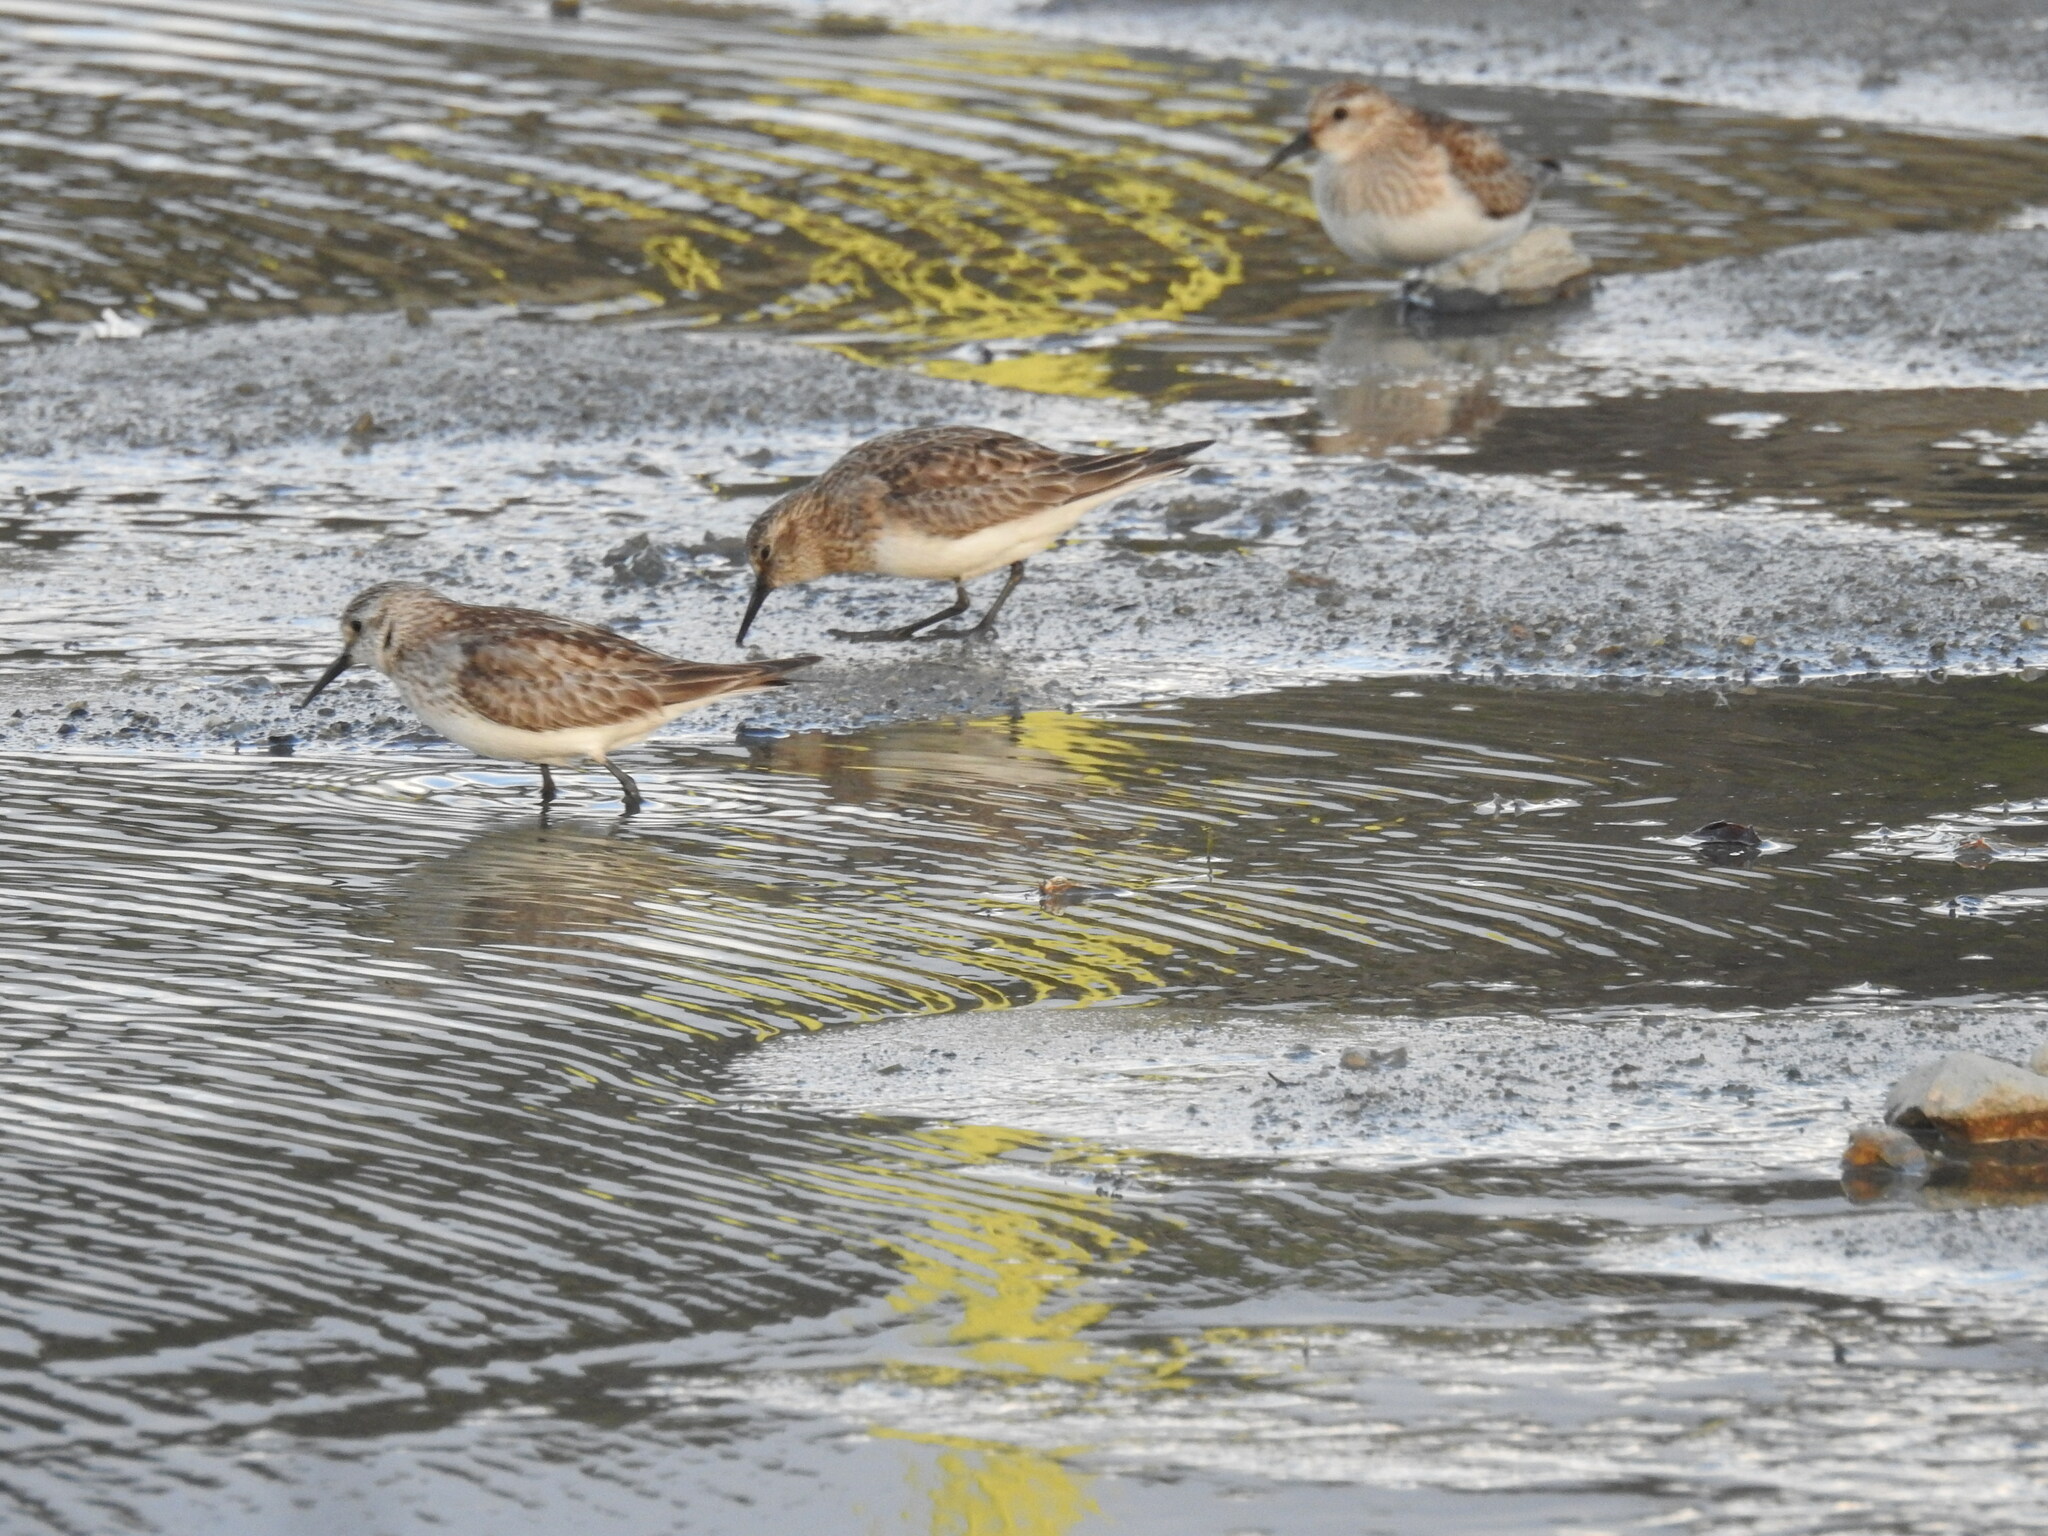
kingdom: Animalia
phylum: Chordata
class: Aves
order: Charadriiformes
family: Scolopacidae
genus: Calidris
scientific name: Calidris bairdii
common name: Baird's sandpiper
